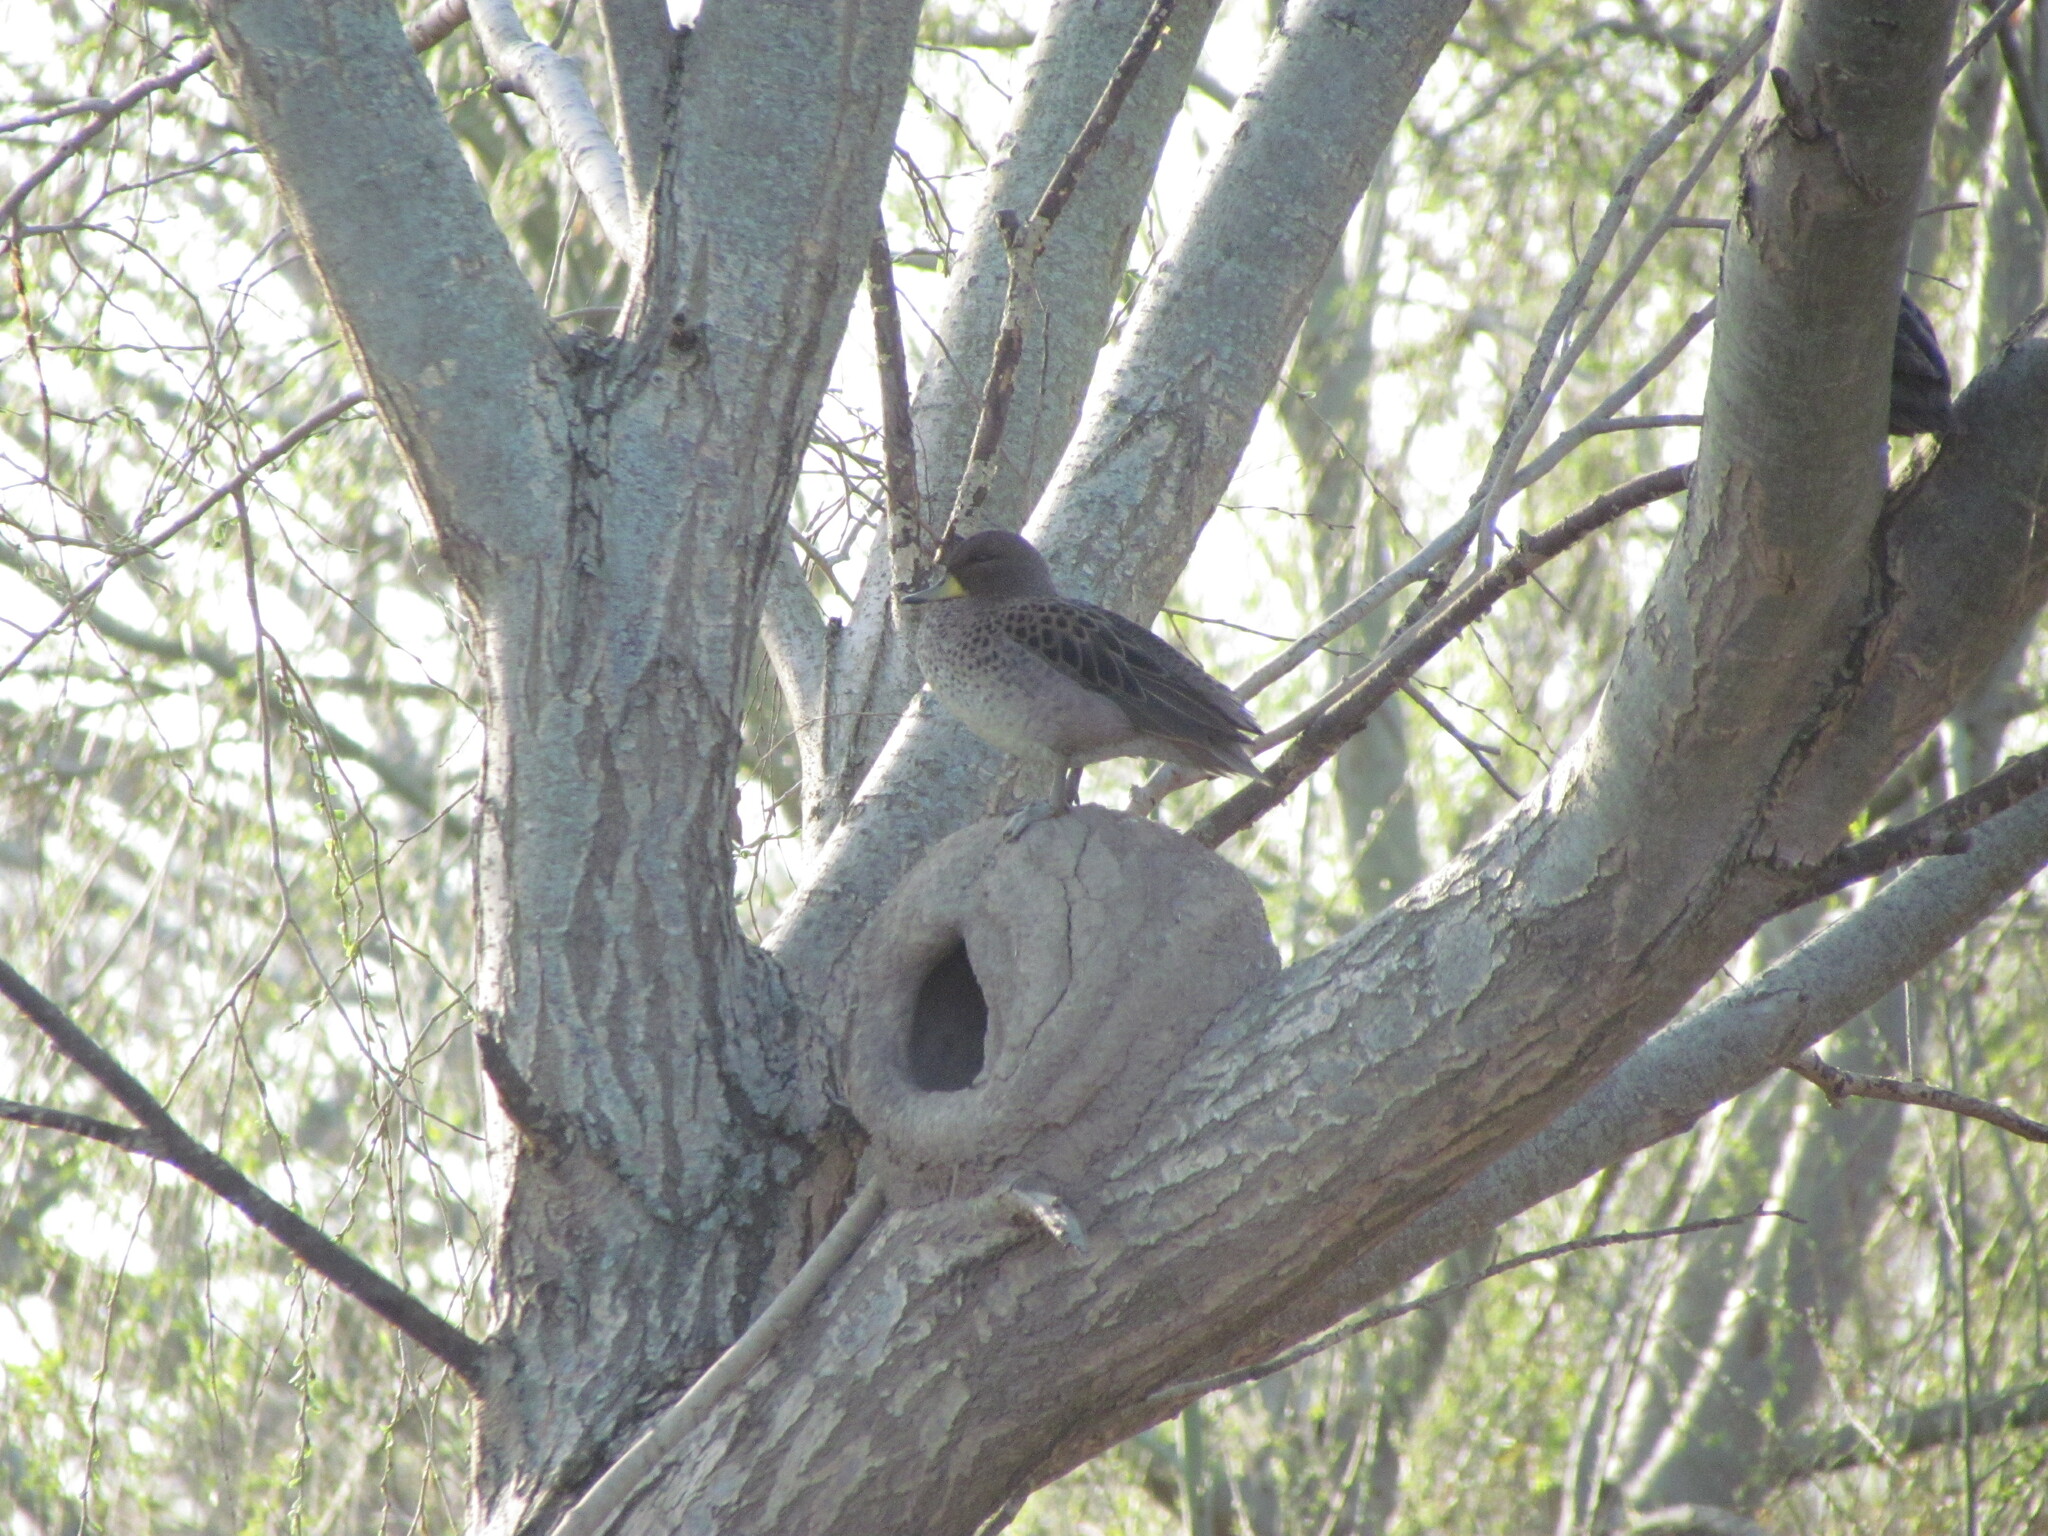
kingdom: Animalia
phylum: Chordata
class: Aves
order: Anseriformes
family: Anatidae
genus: Anas
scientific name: Anas flavirostris
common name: Yellow-billed teal
